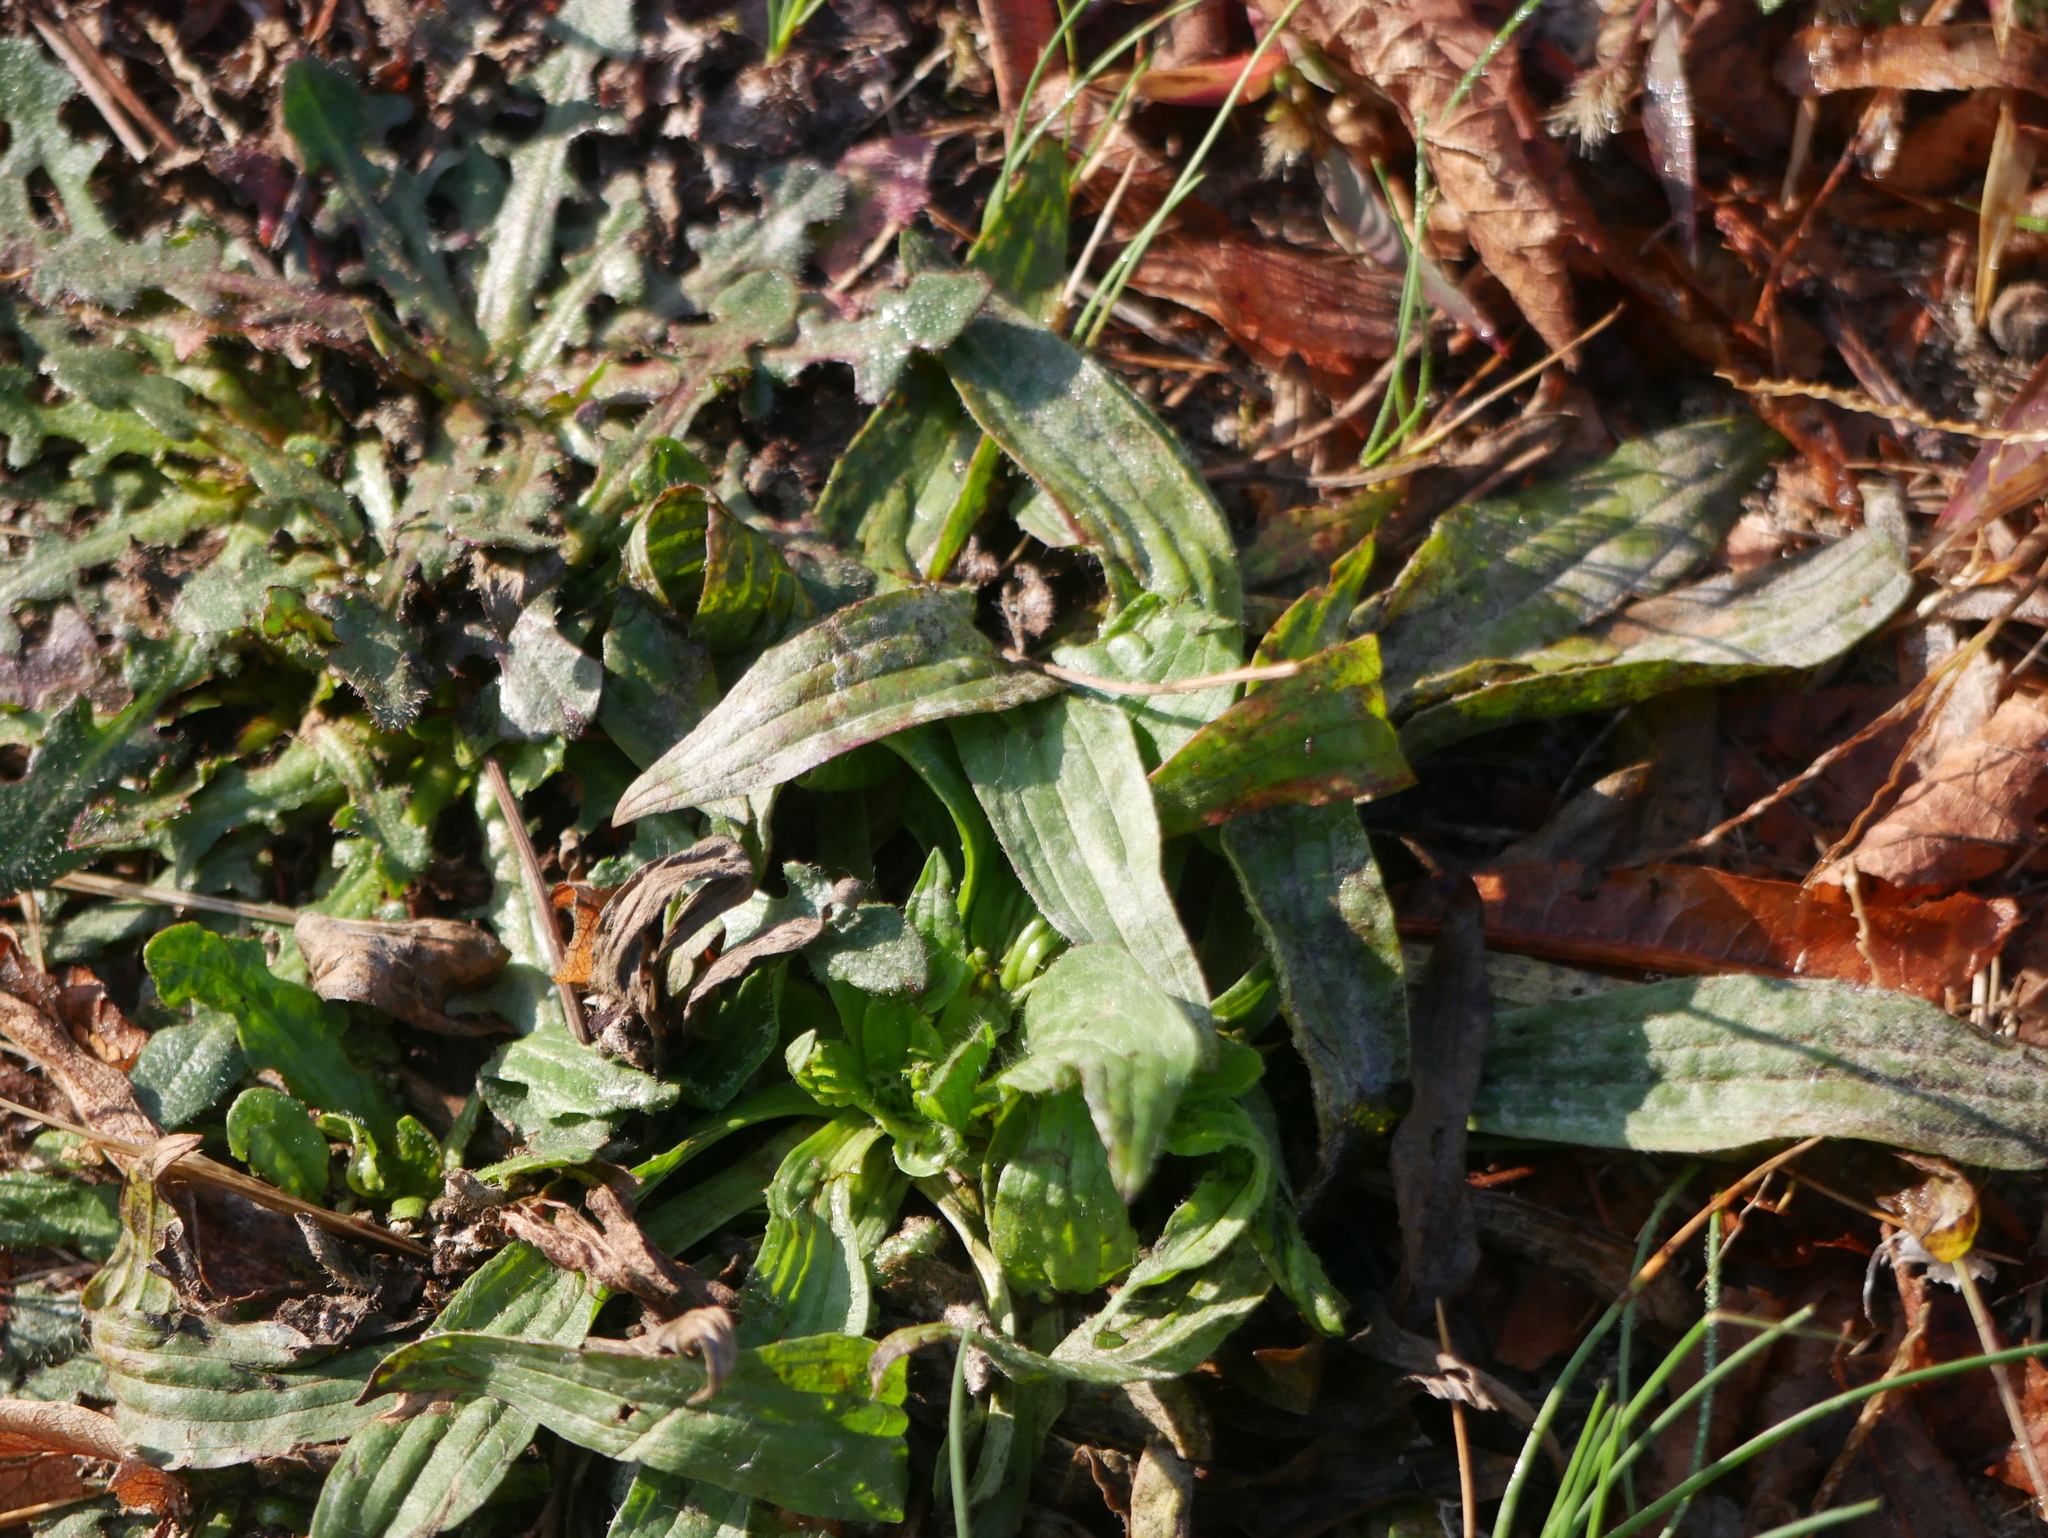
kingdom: Plantae
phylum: Tracheophyta
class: Magnoliopsida
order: Lamiales
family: Plantaginaceae
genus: Plantago
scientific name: Plantago lanceolata
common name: Ribwort plantain
